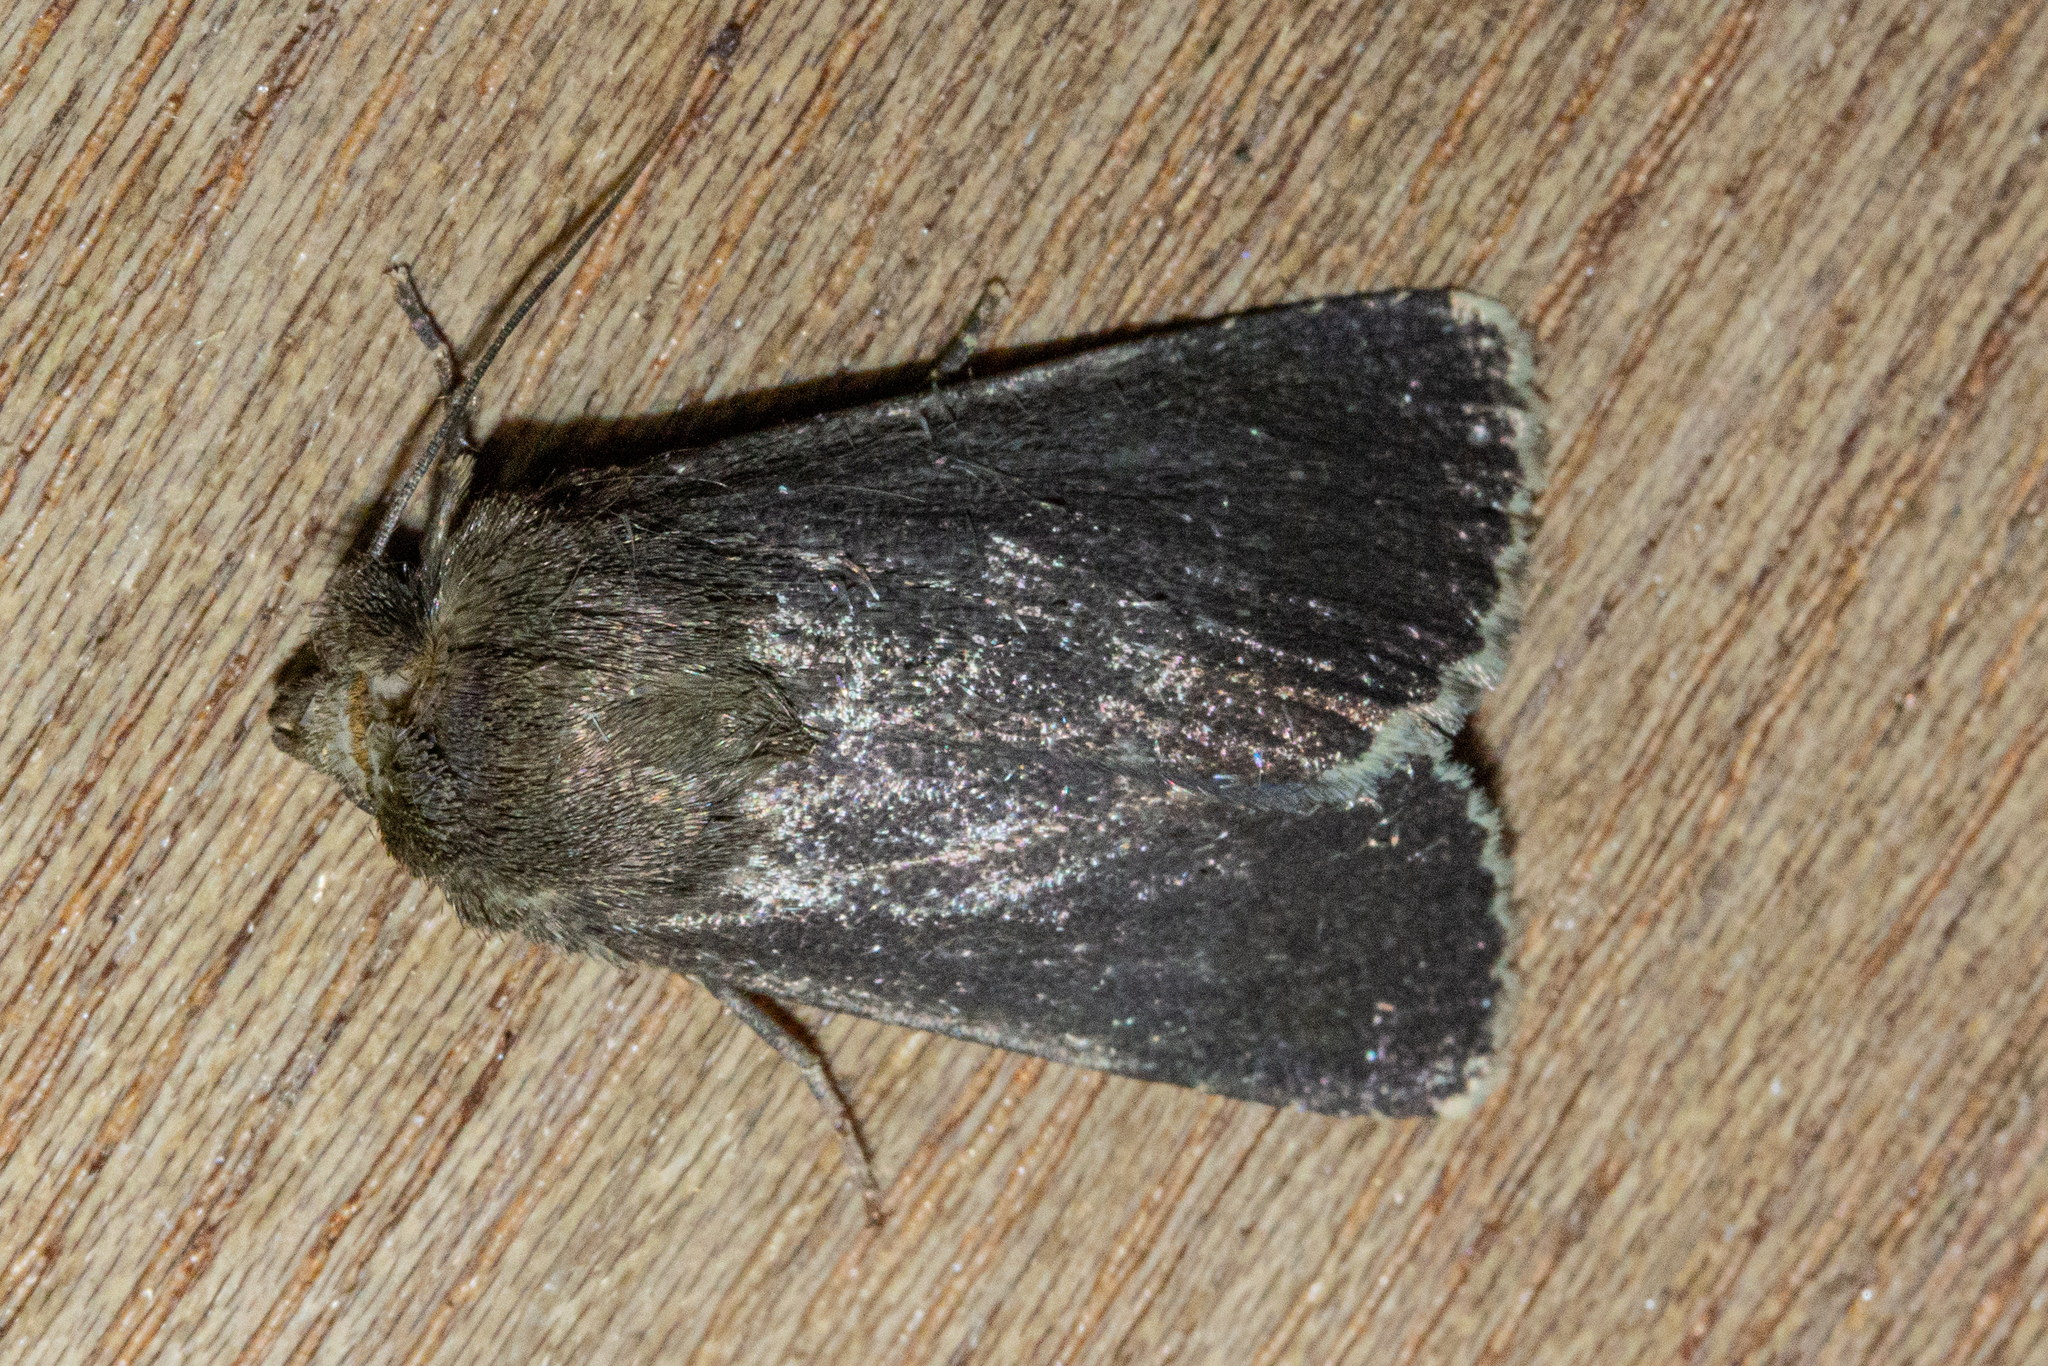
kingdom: Animalia
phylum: Arthropoda
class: Insecta
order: Lepidoptera
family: Noctuidae
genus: Bityla
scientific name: Bityla sericea
